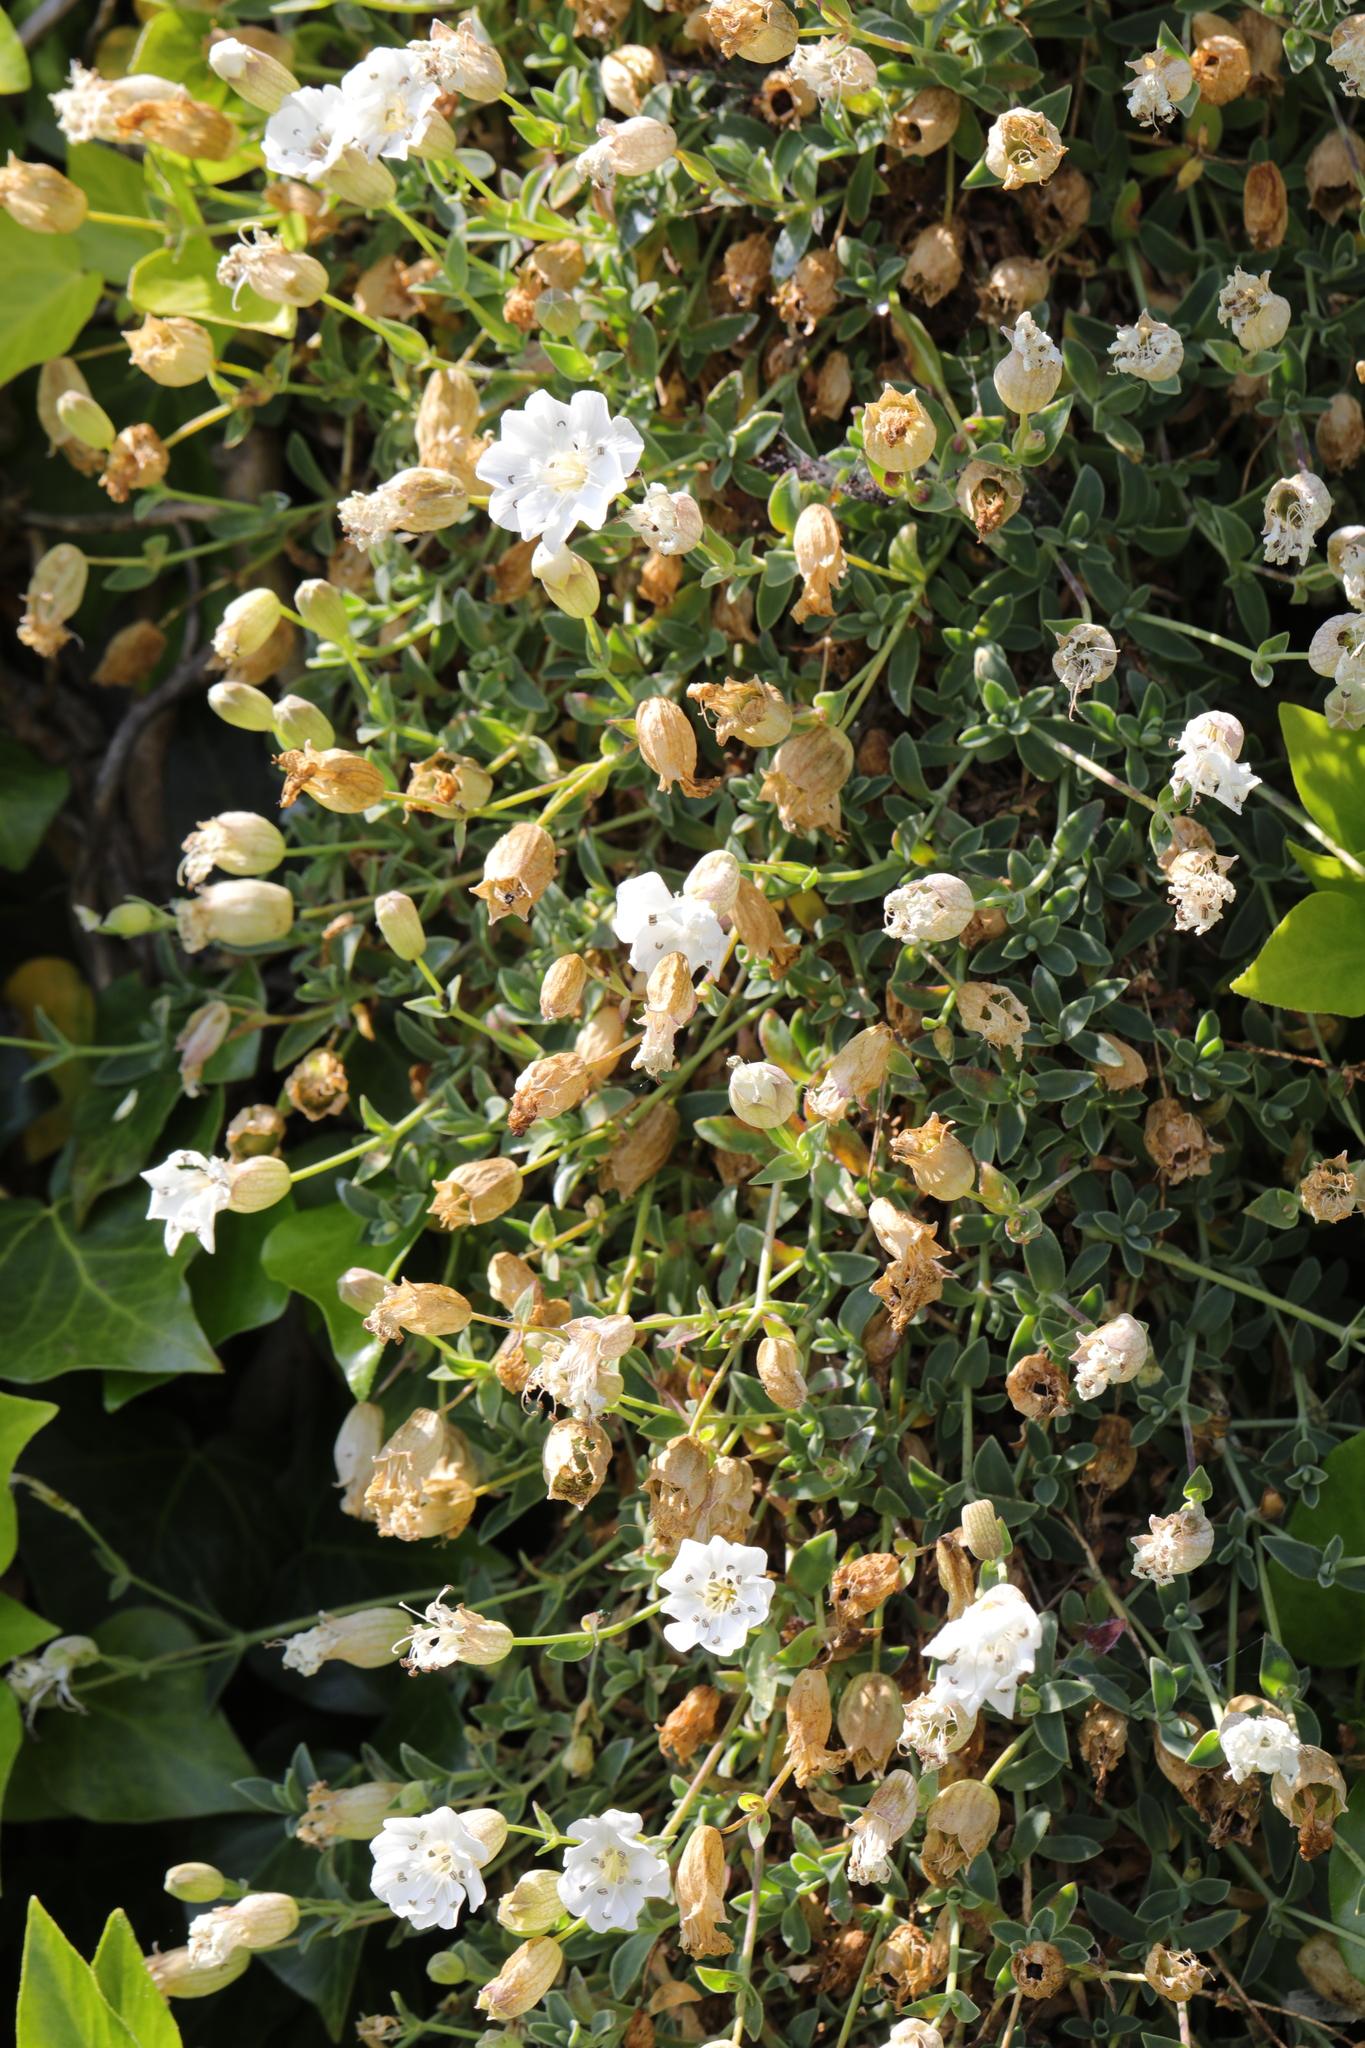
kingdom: Plantae
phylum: Tracheophyta
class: Magnoliopsida
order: Caryophyllales
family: Caryophyllaceae
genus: Silene
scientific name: Silene uniflora
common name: Sea campion
